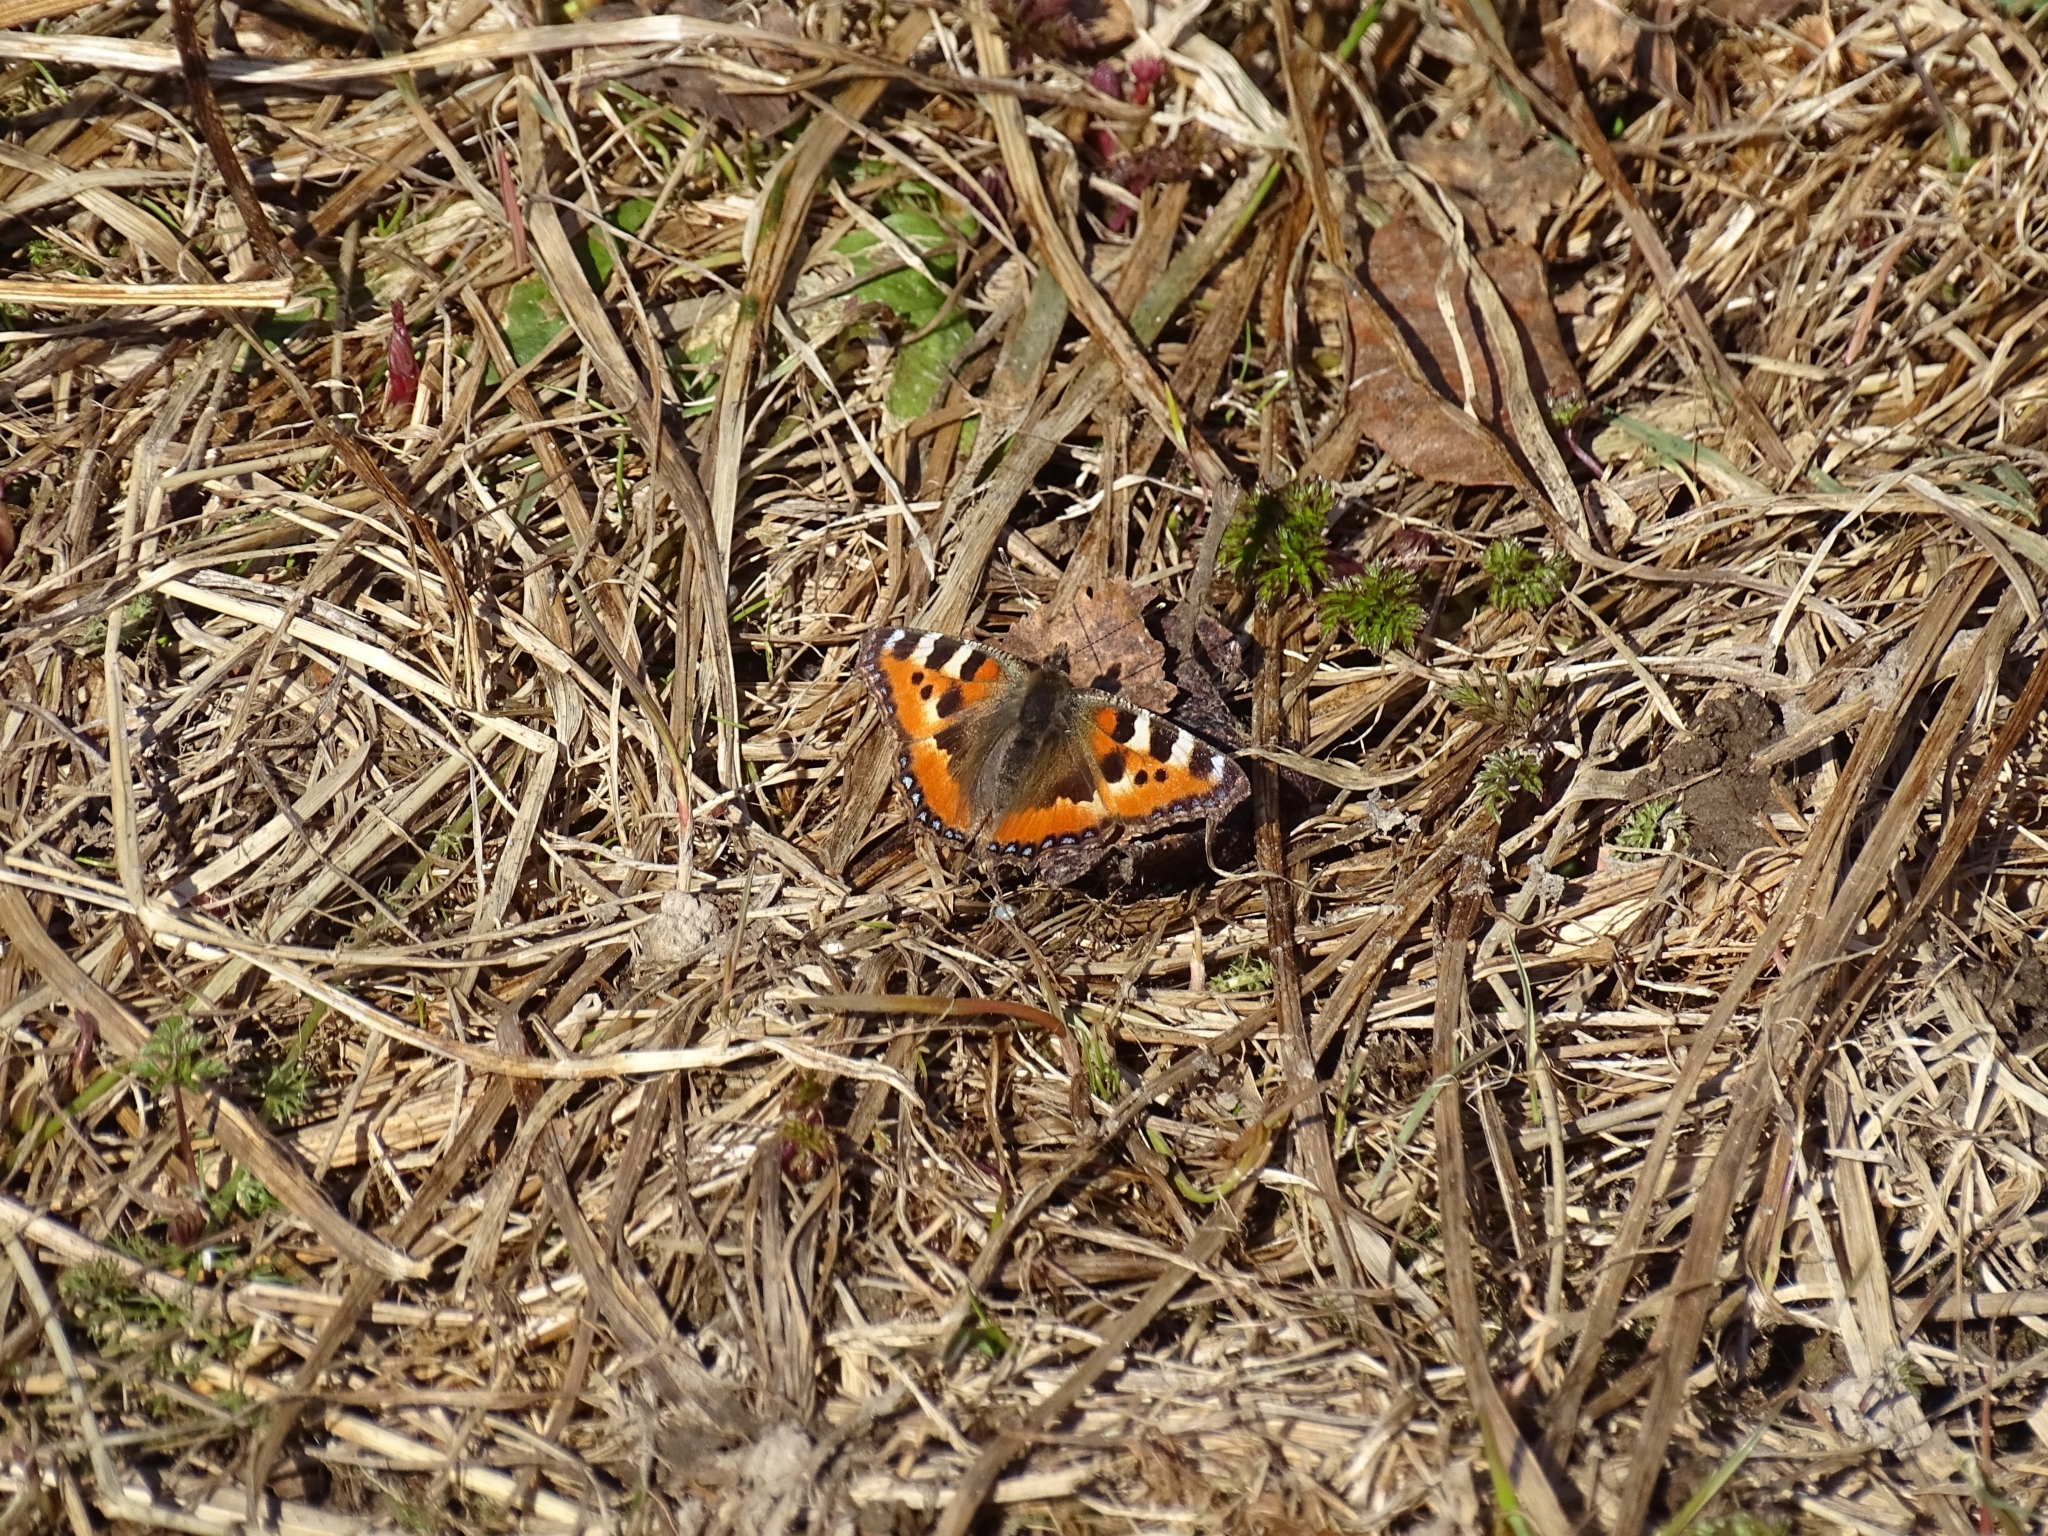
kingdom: Animalia
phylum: Arthropoda
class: Insecta
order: Lepidoptera
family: Nymphalidae
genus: Aglais
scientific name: Aglais urticae
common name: Small tortoiseshell
